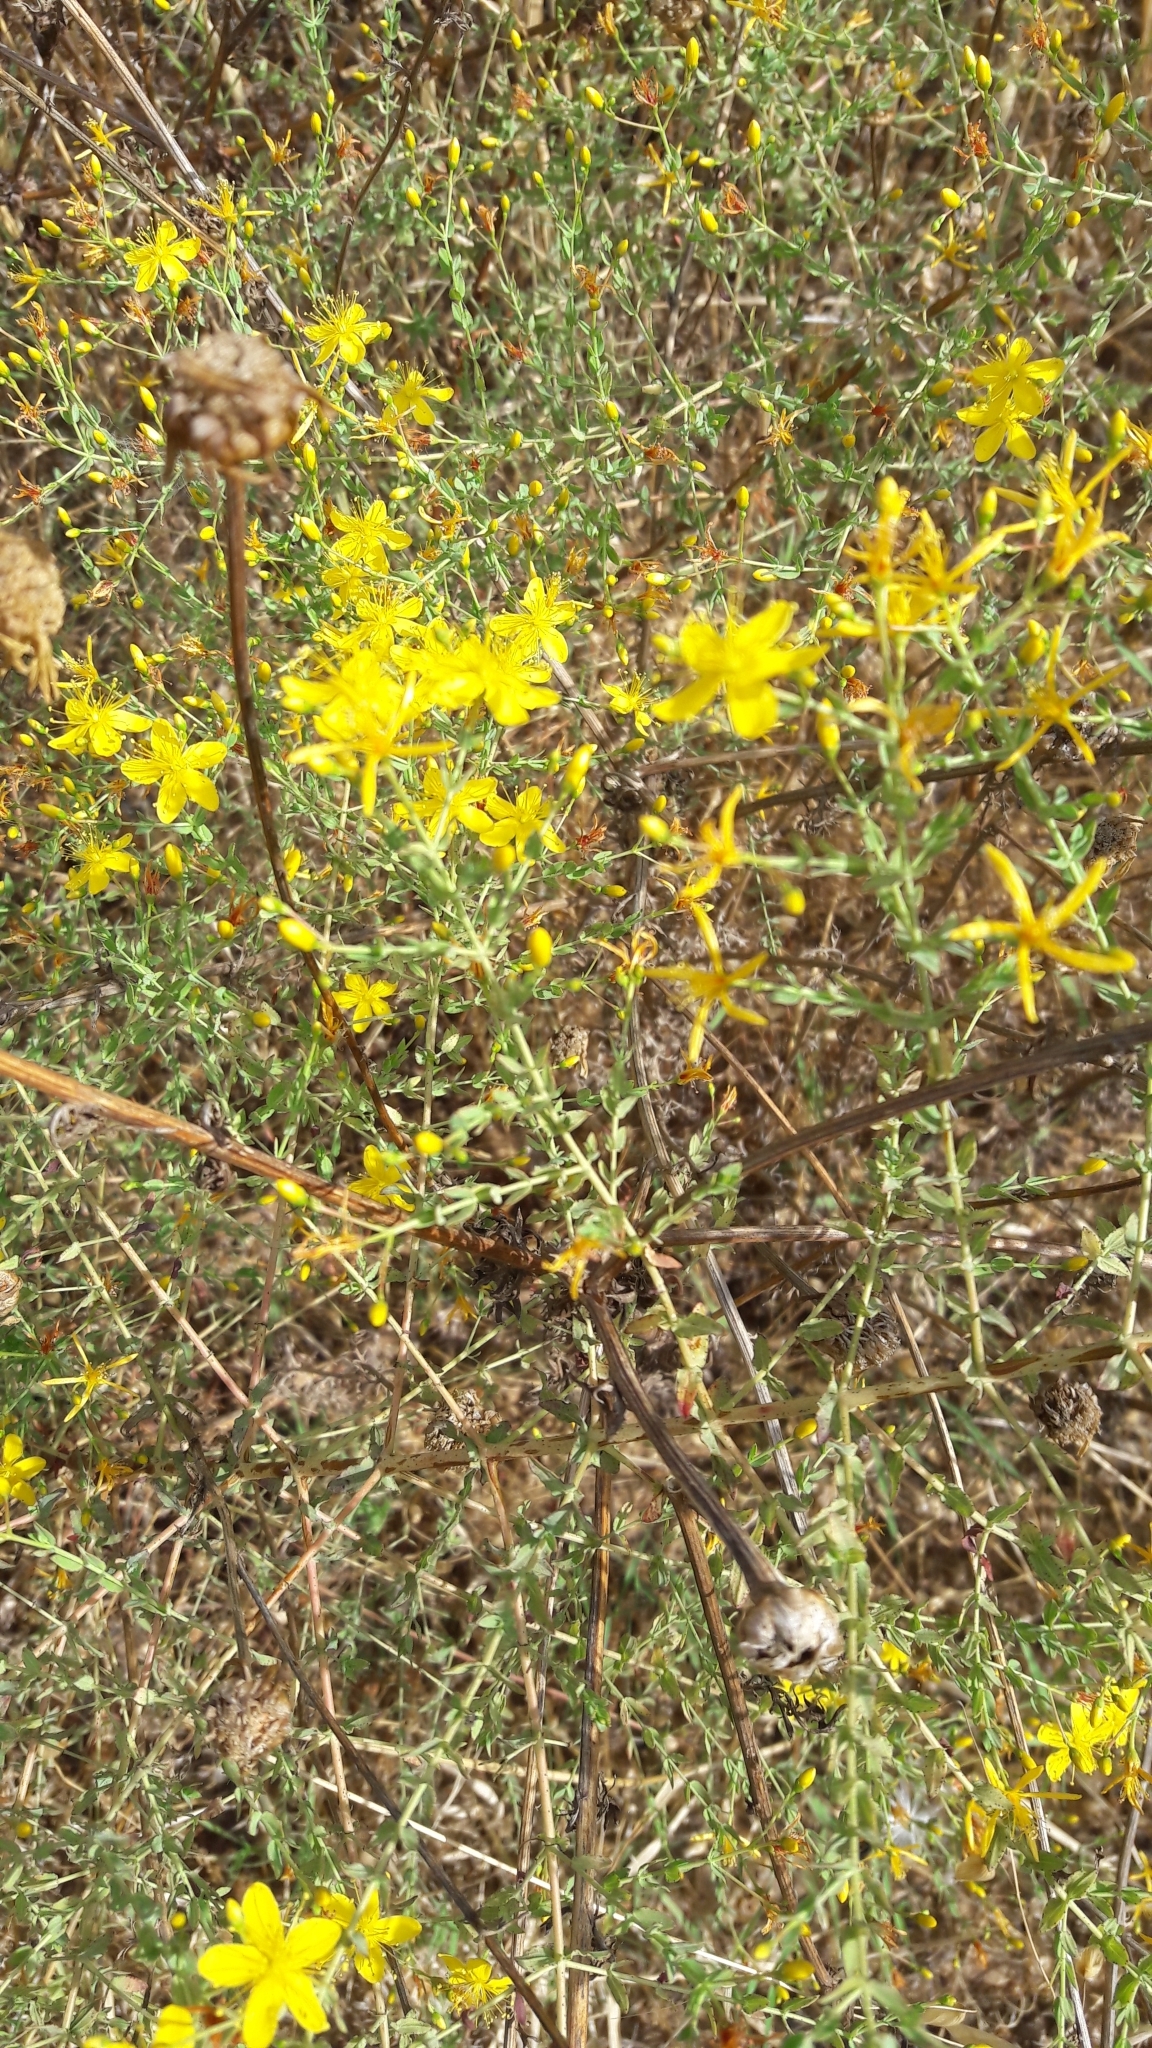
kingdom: Plantae
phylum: Tracheophyta
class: Magnoliopsida
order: Malpighiales
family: Hypericaceae
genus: Hypericum
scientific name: Hypericum triquetrifolium
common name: Tangled hypericum
